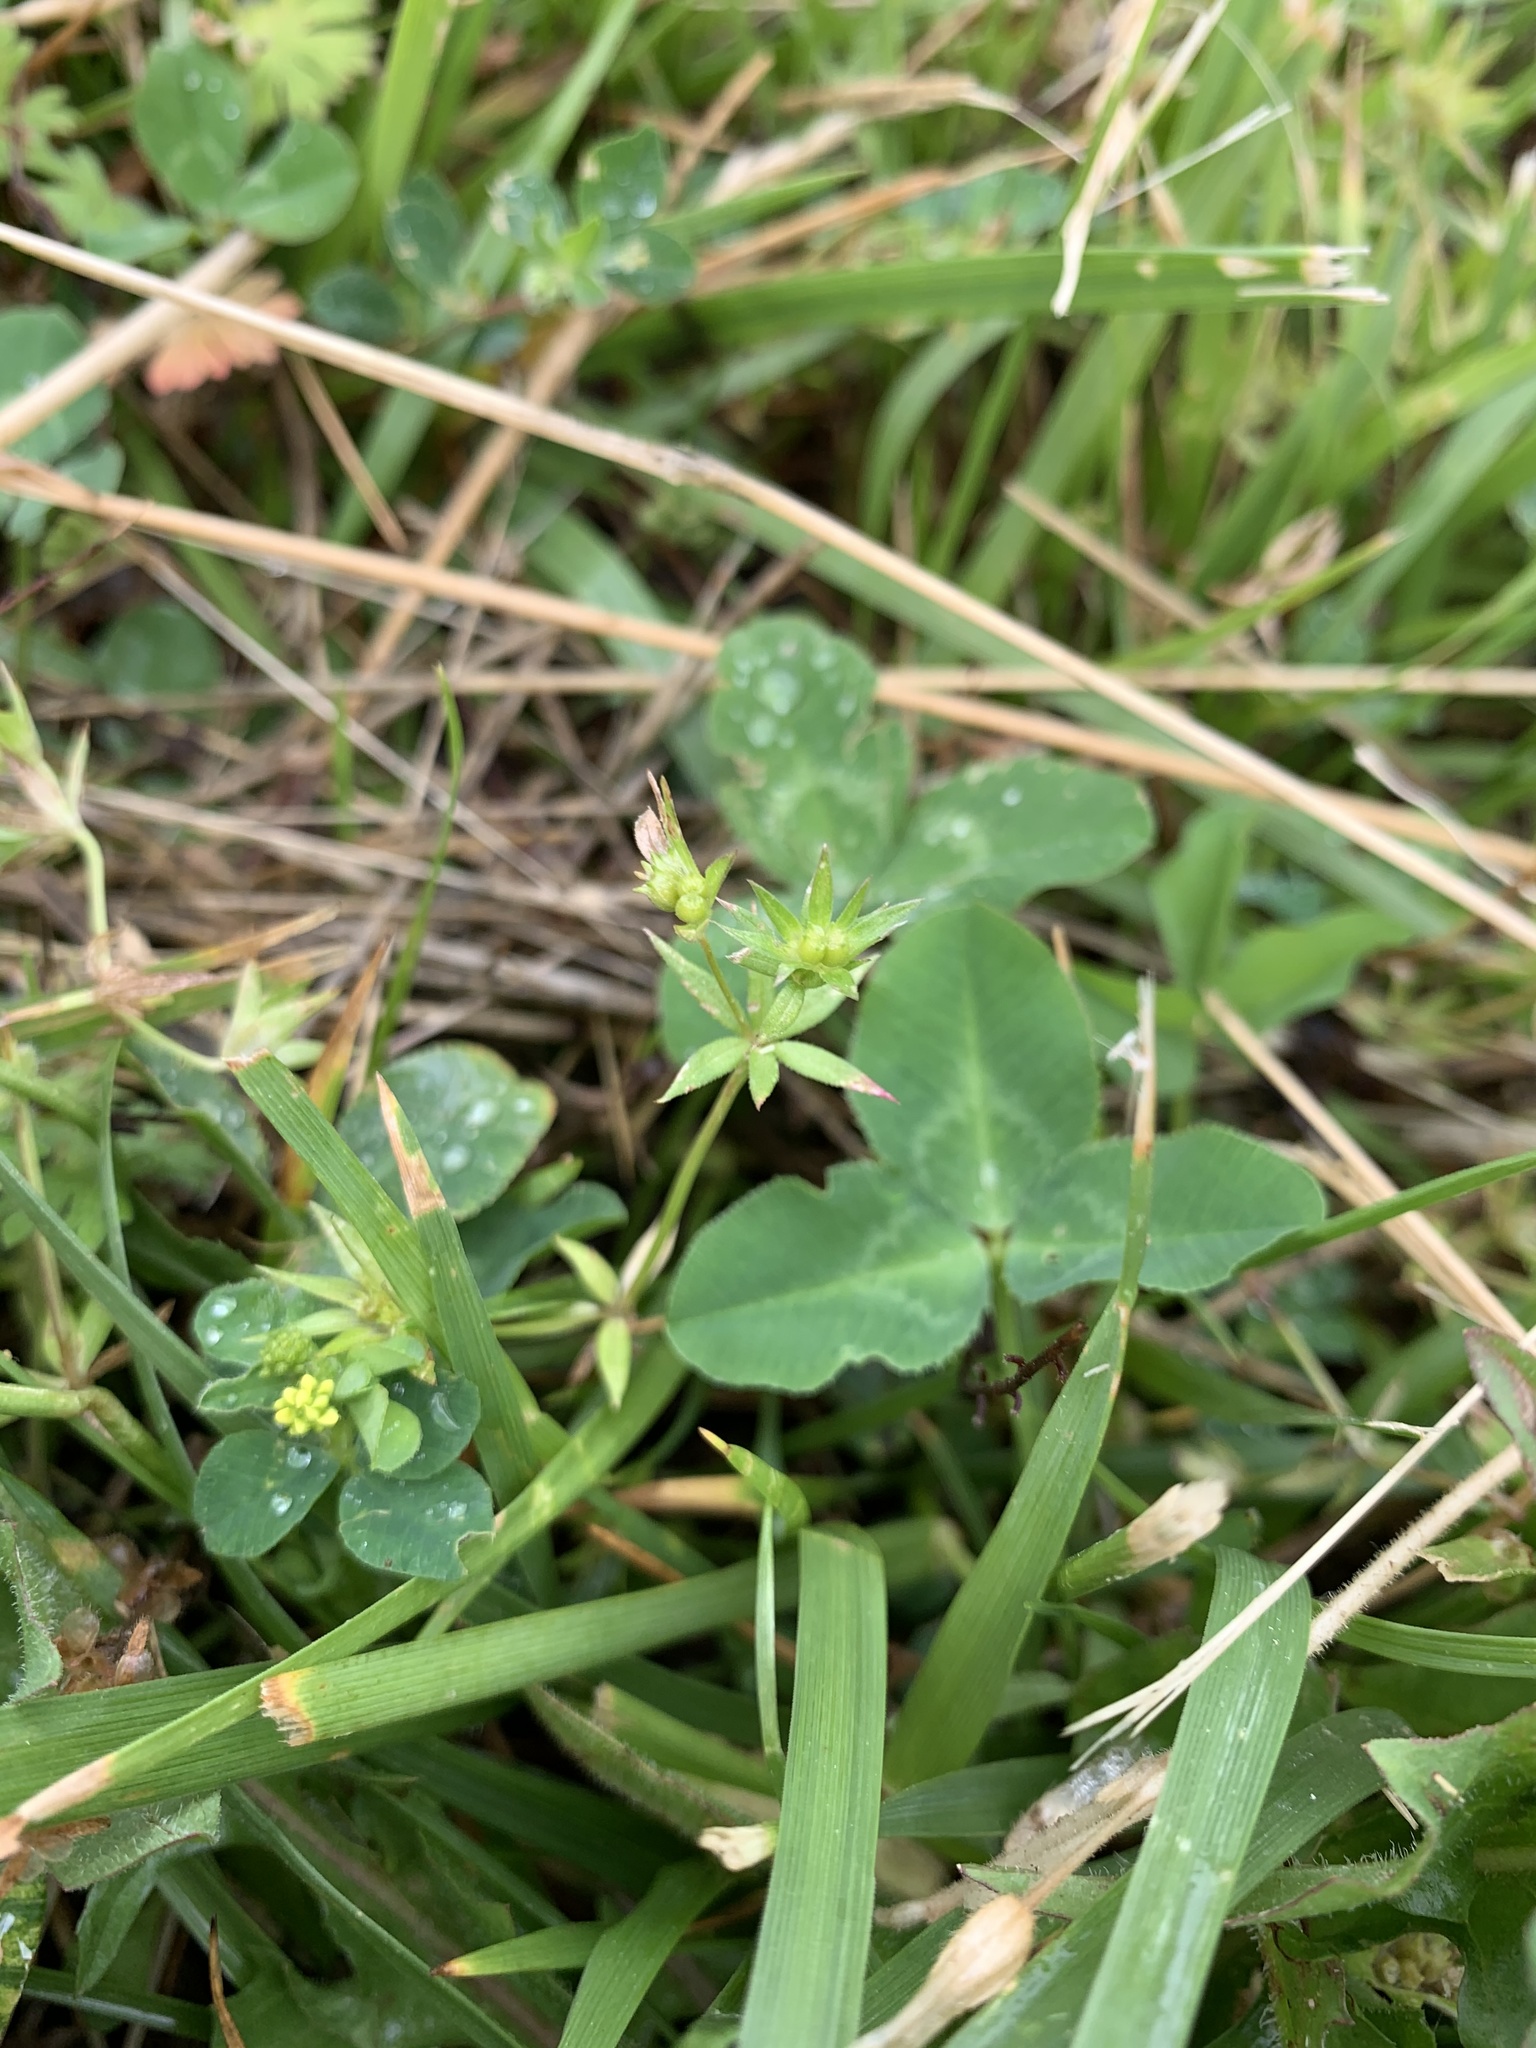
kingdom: Plantae
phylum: Tracheophyta
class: Magnoliopsida
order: Gentianales
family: Rubiaceae
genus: Sherardia
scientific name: Sherardia arvensis
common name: Field madder
